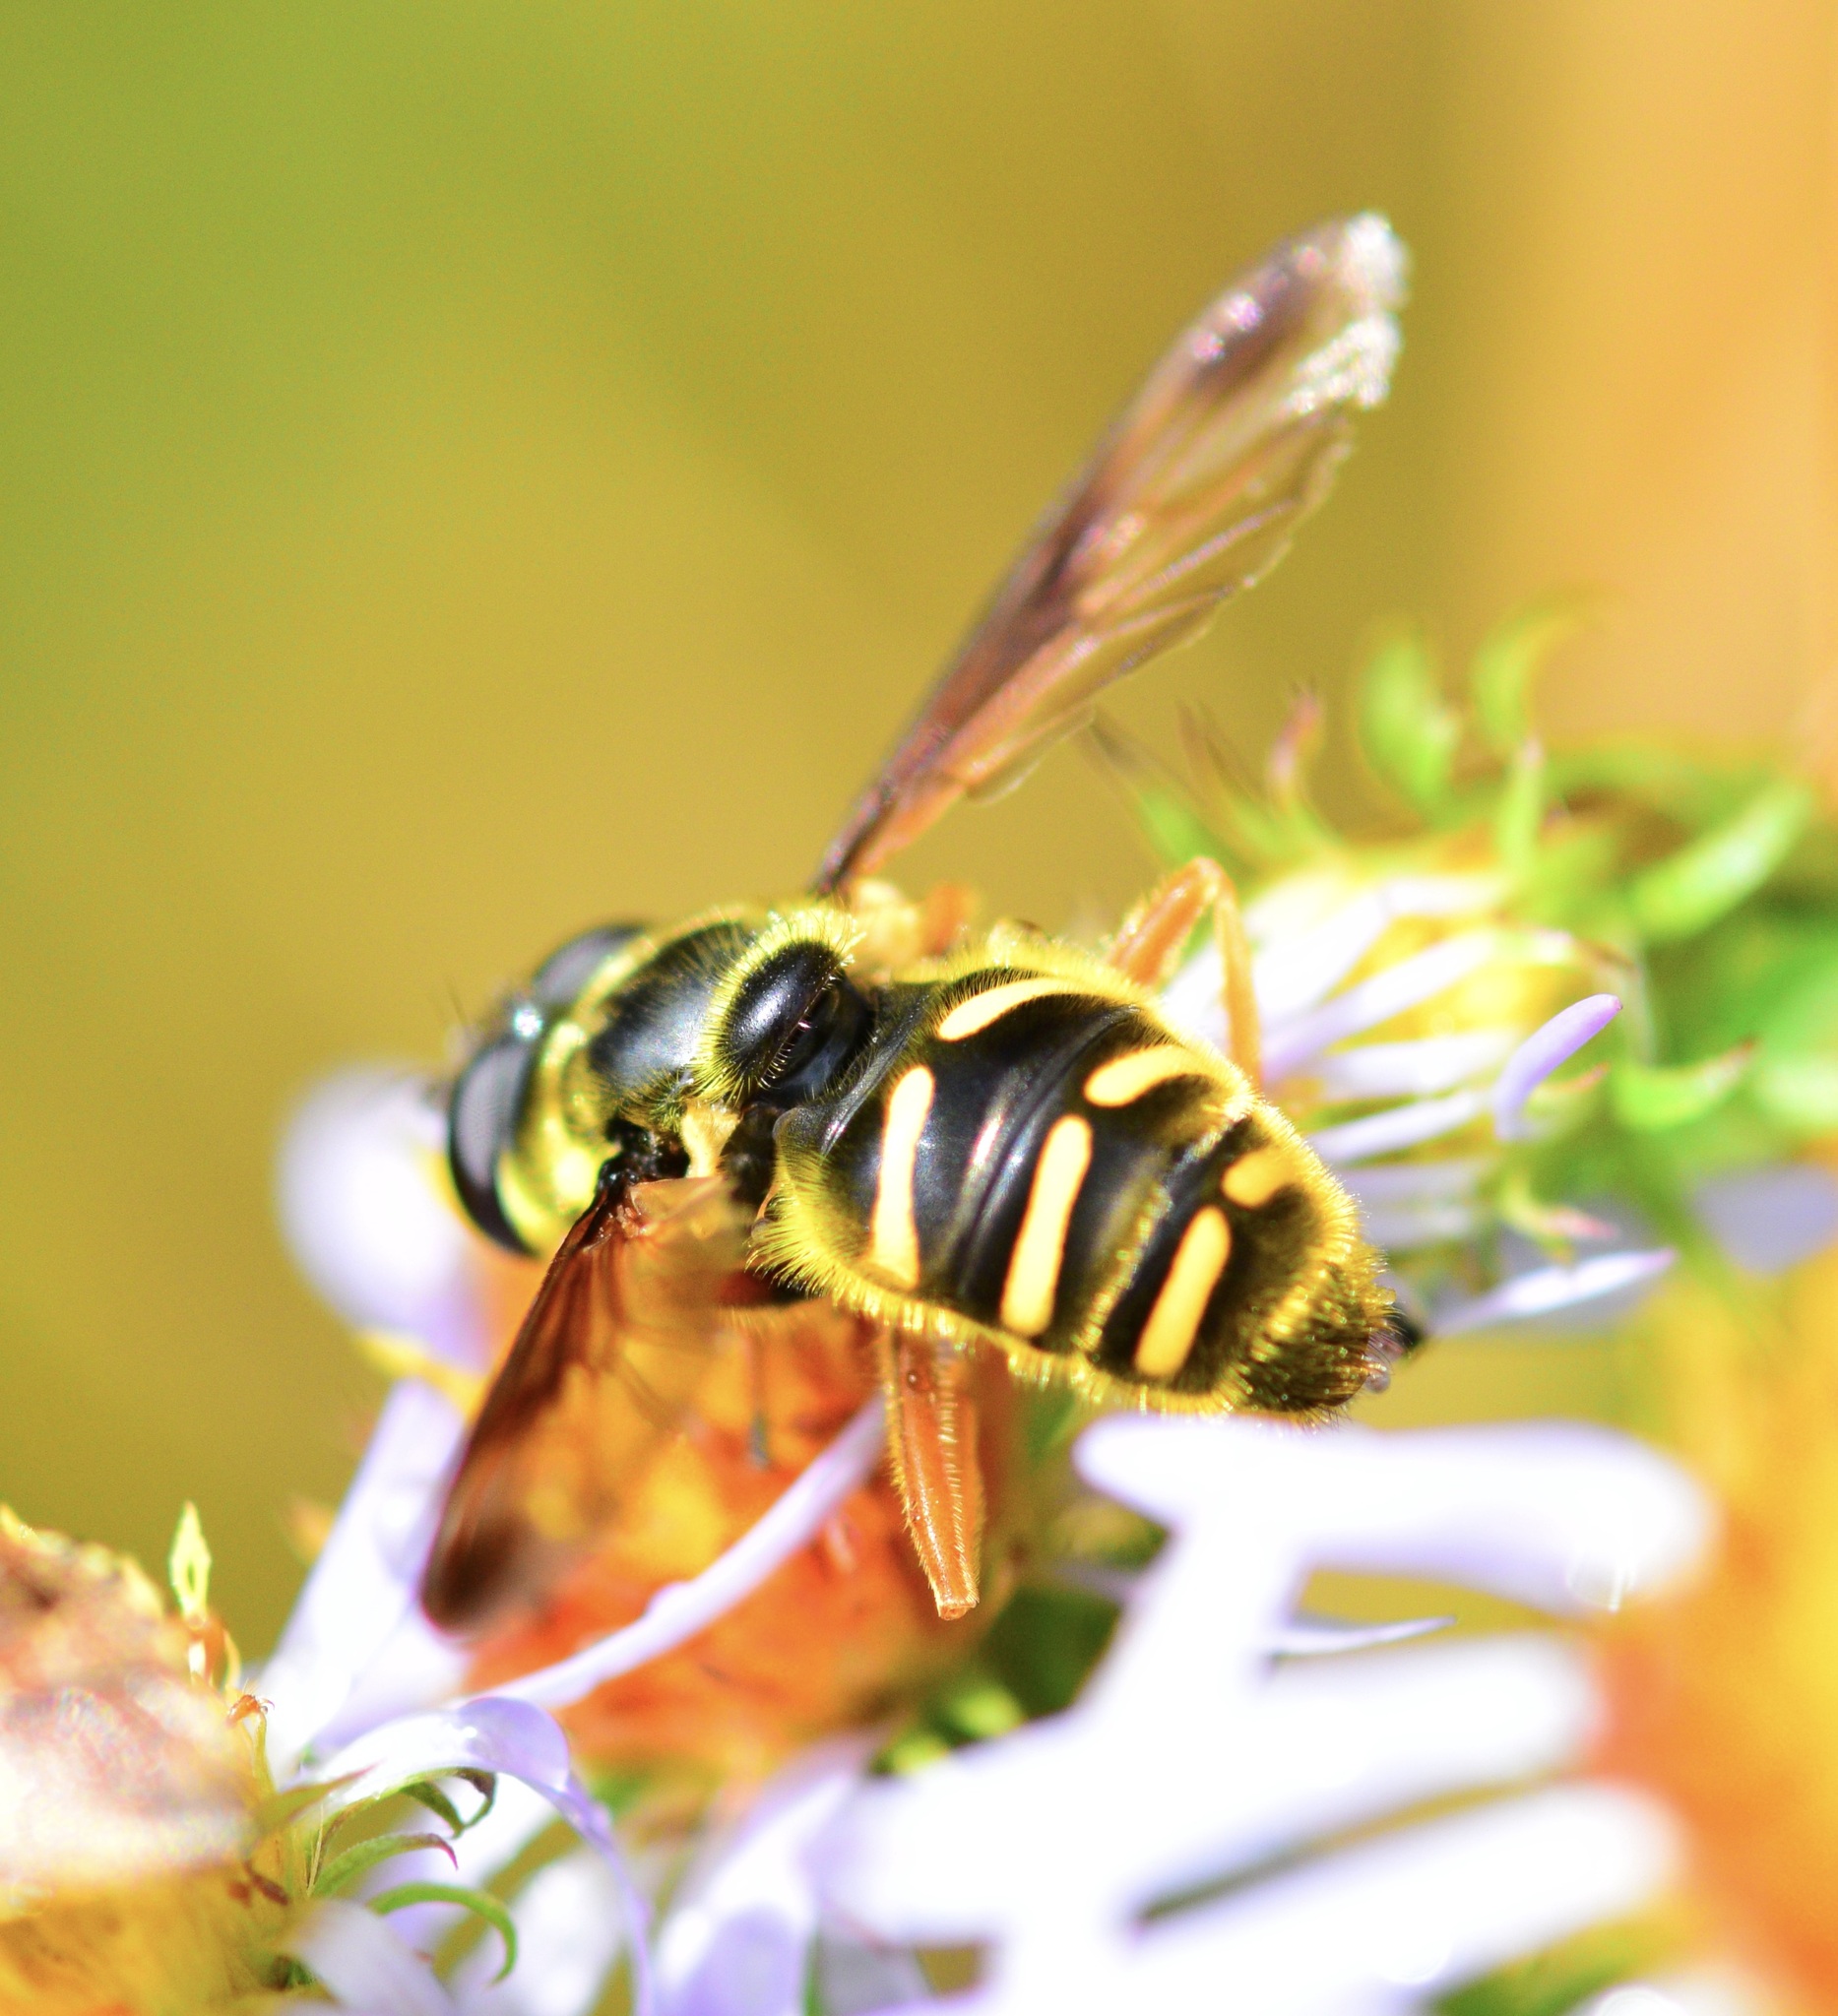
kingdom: Animalia
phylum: Arthropoda
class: Insecta
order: Diptera
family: Syrphidae
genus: Sericomyia
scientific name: Sericomyia chrysotoxoides
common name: Oblique-banded pond fly
